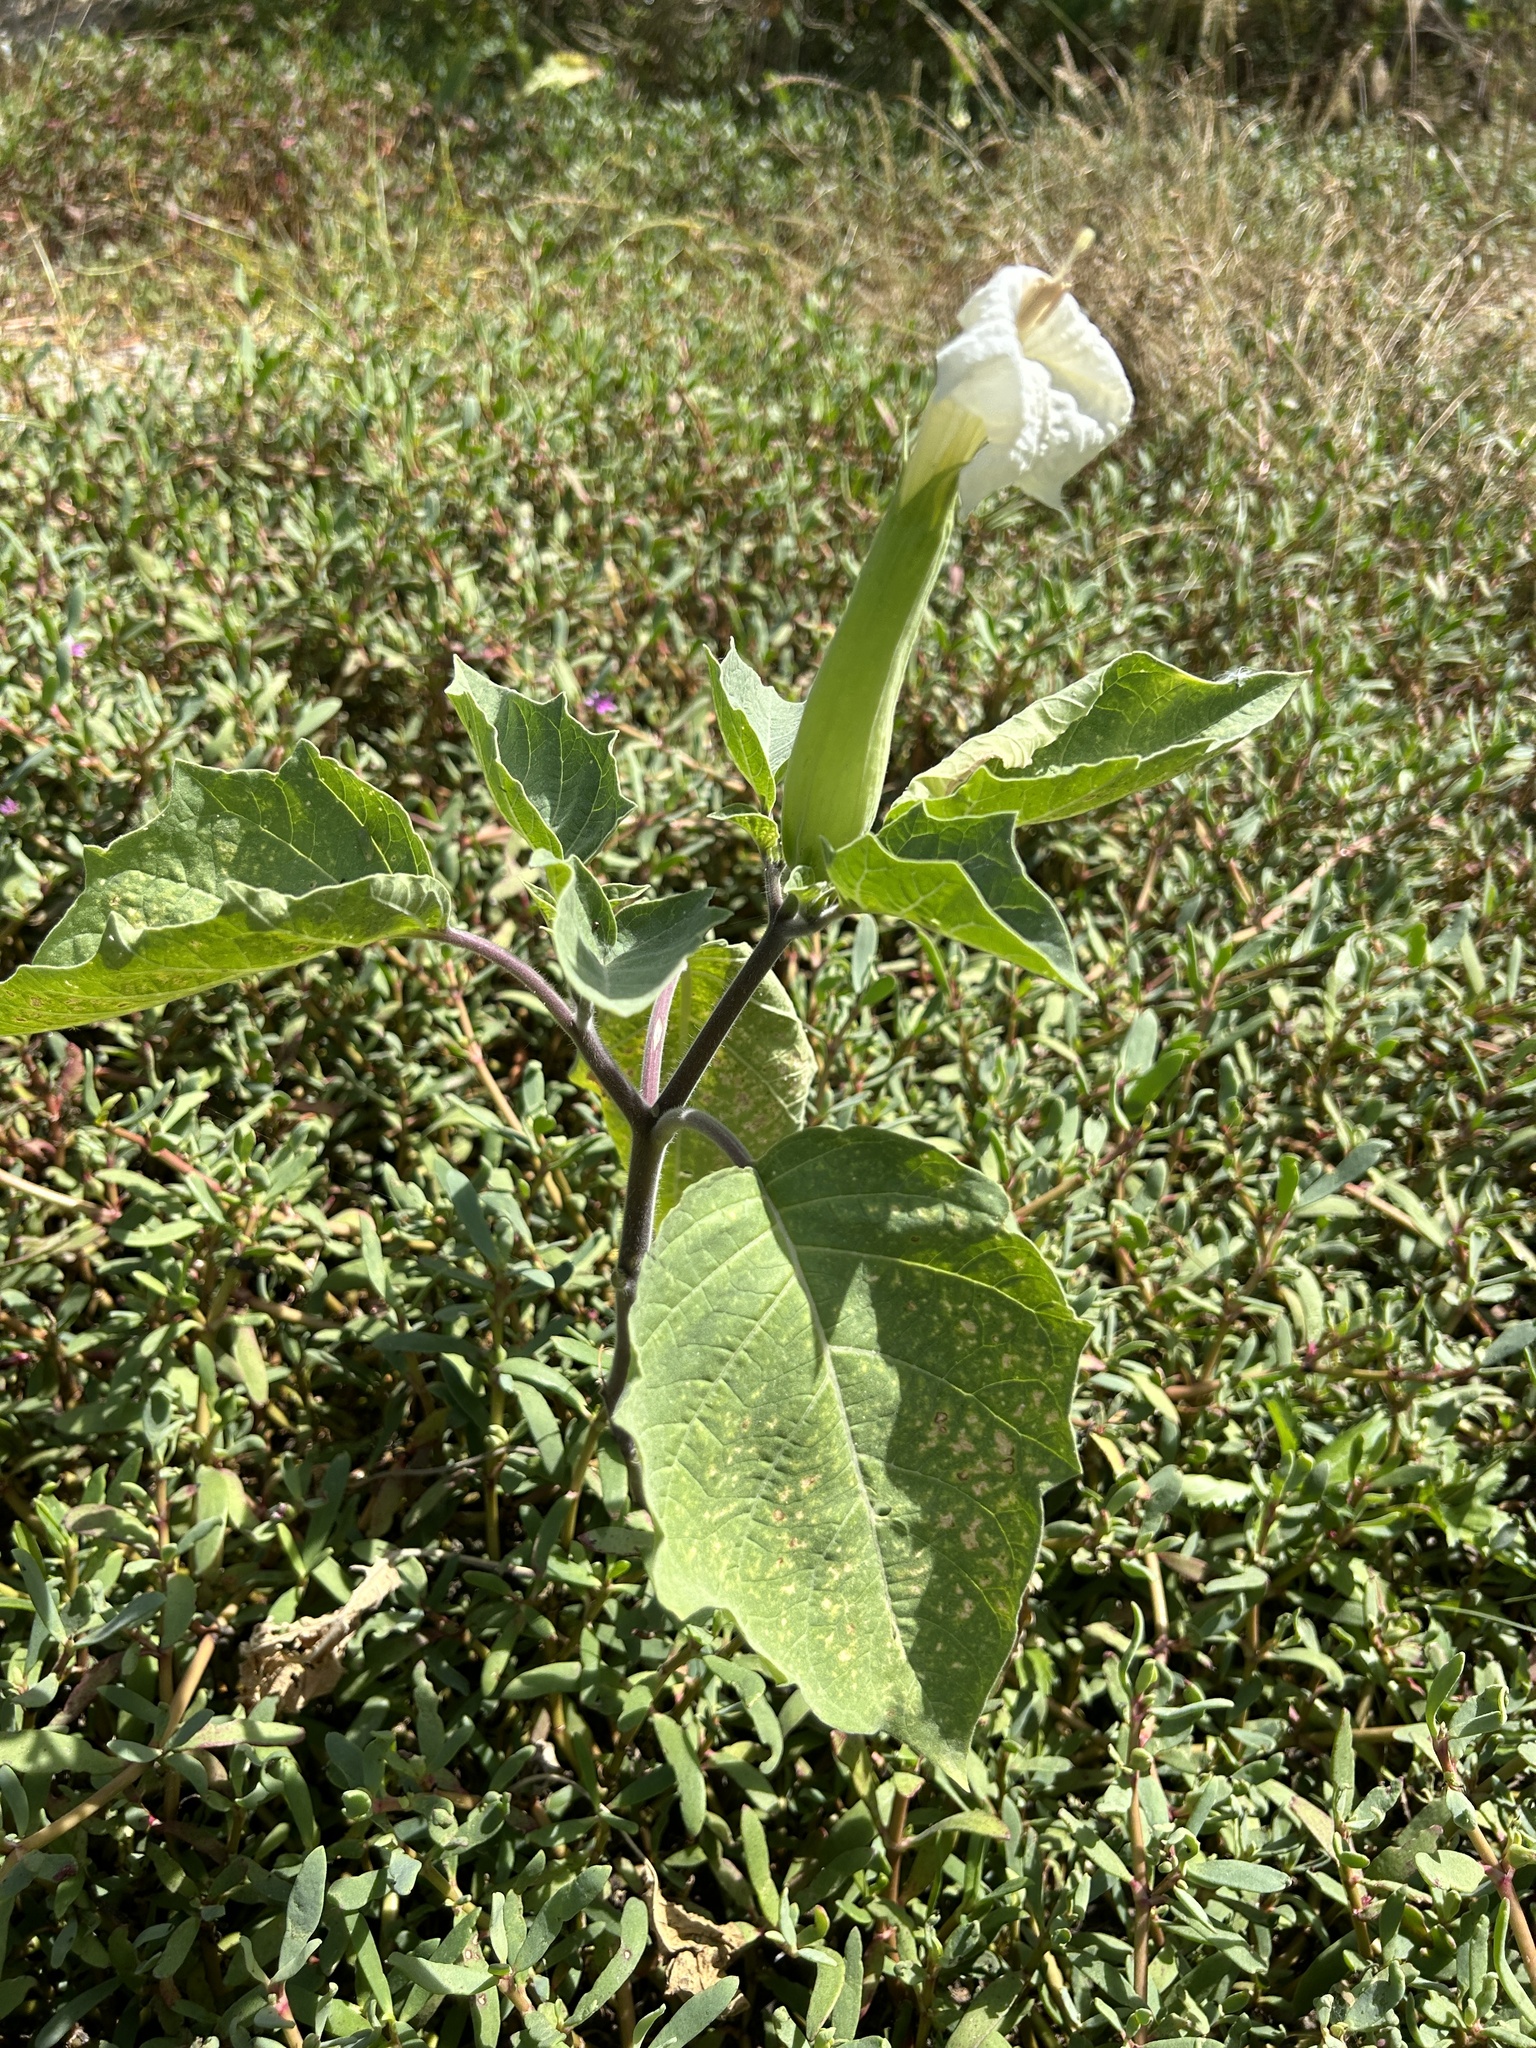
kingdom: Plantae
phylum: Tracheophyta
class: Magnoliopsida
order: Solanales
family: Solanaceae
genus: Datura
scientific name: Datura innoxia
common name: Downy thorn-apple
